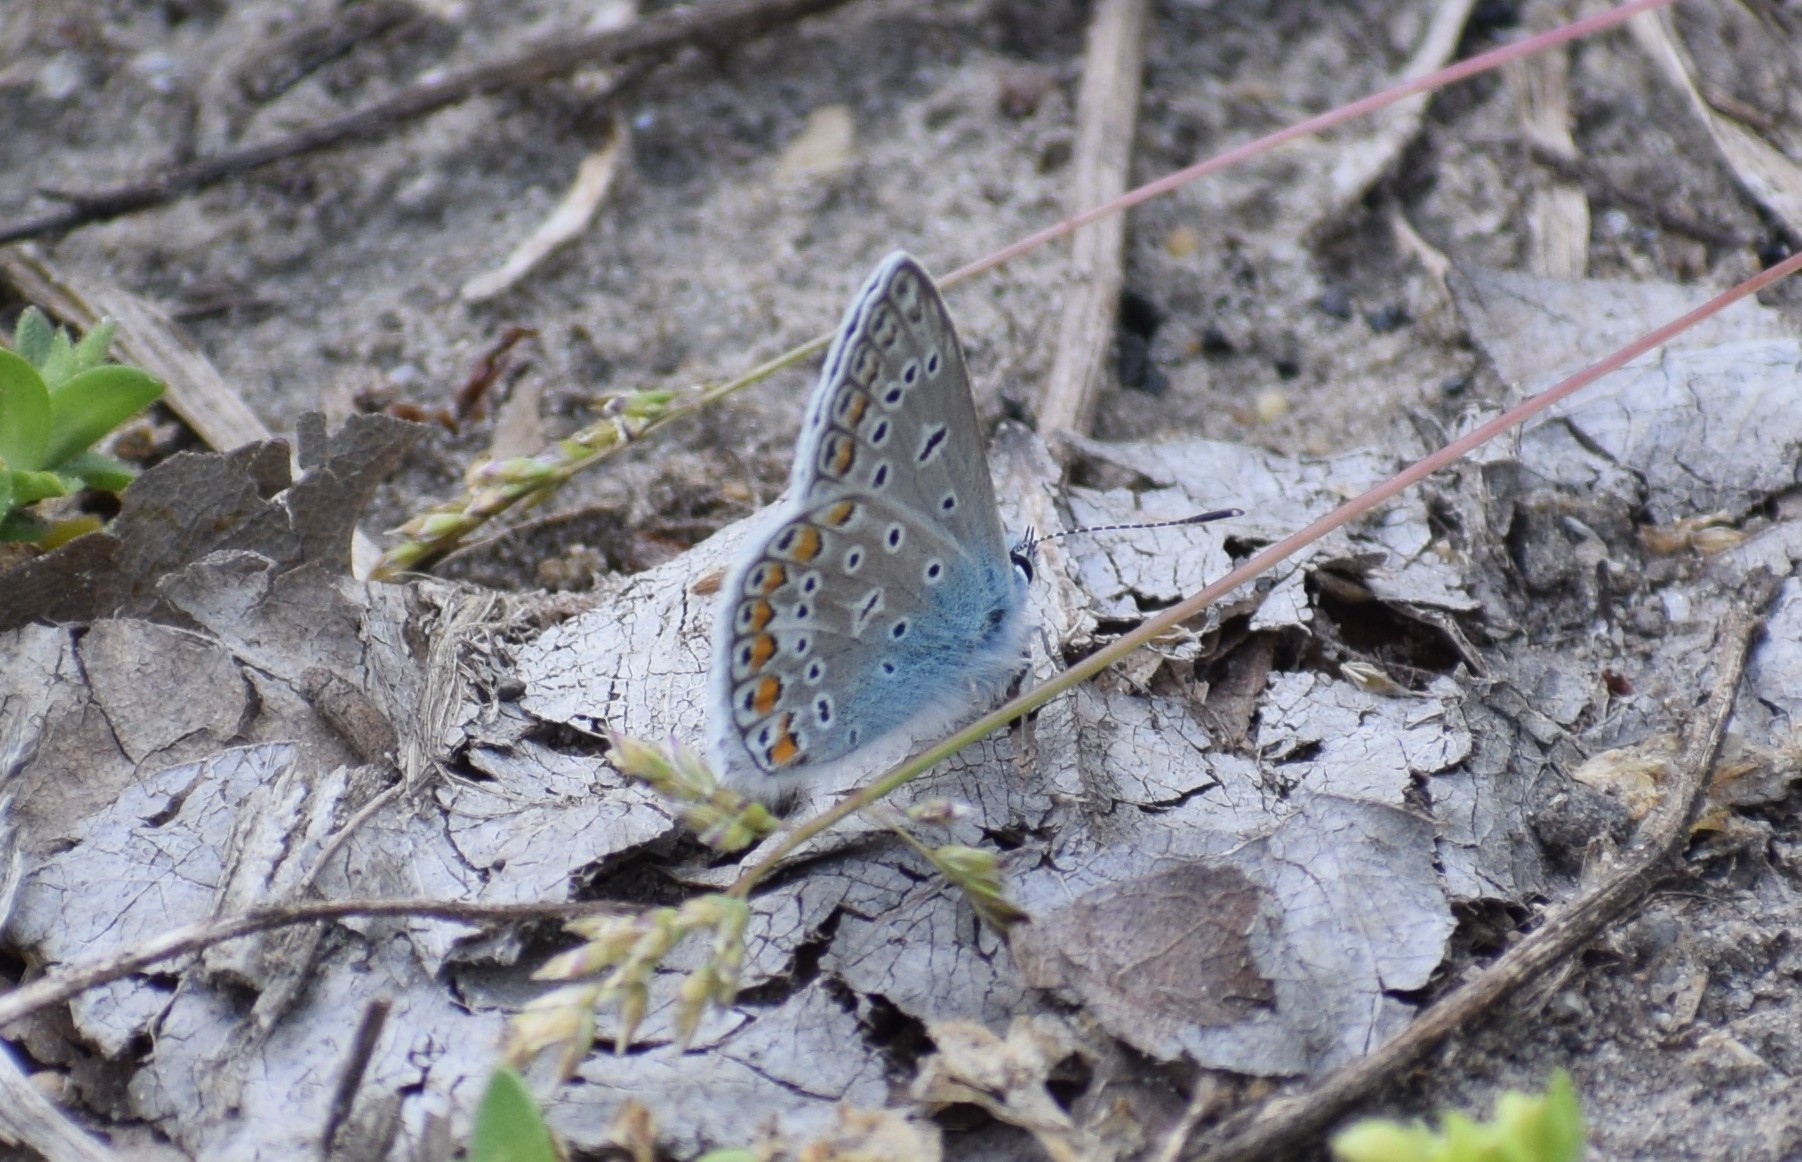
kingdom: Animalia
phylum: Arthropoda
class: Insecta
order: Lepidoptera
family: Lycaenidae
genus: Polyommatus
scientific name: Polyommatus icarus
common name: Common blue
